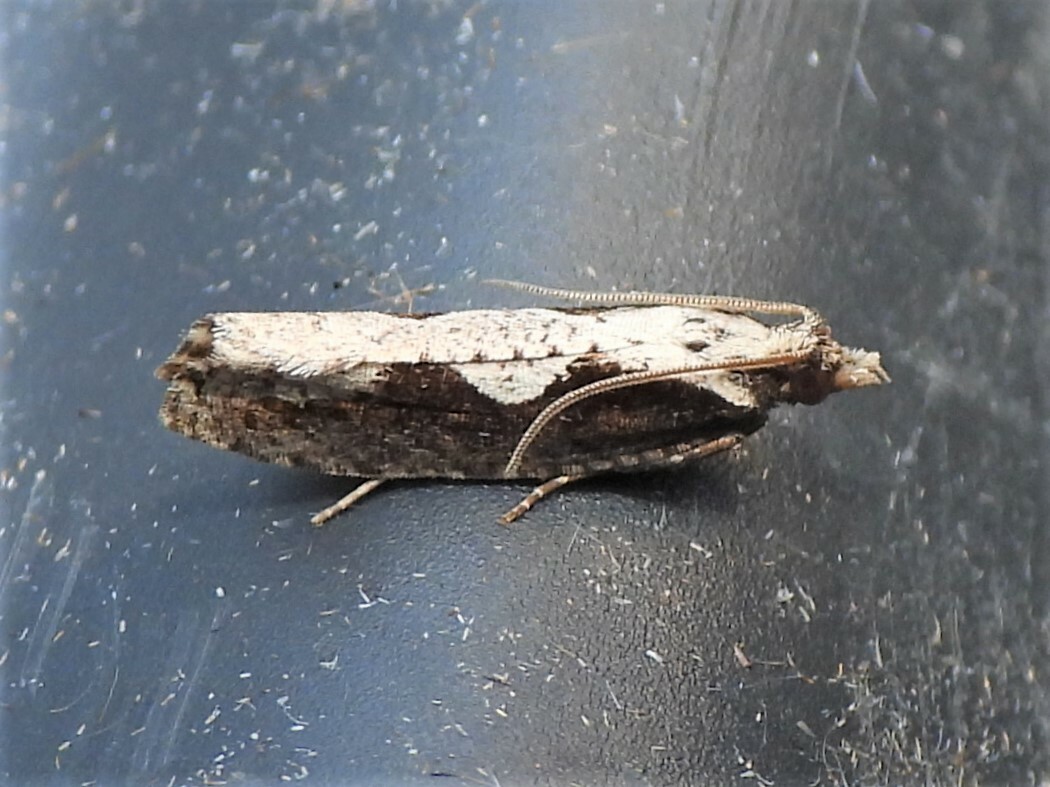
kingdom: Animalia
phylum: Arthropoda
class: Insecta
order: Lepidoptera
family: Tortricidae
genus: Epinotia
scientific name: Epinotia lindana
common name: Diamondback epinotia moth
